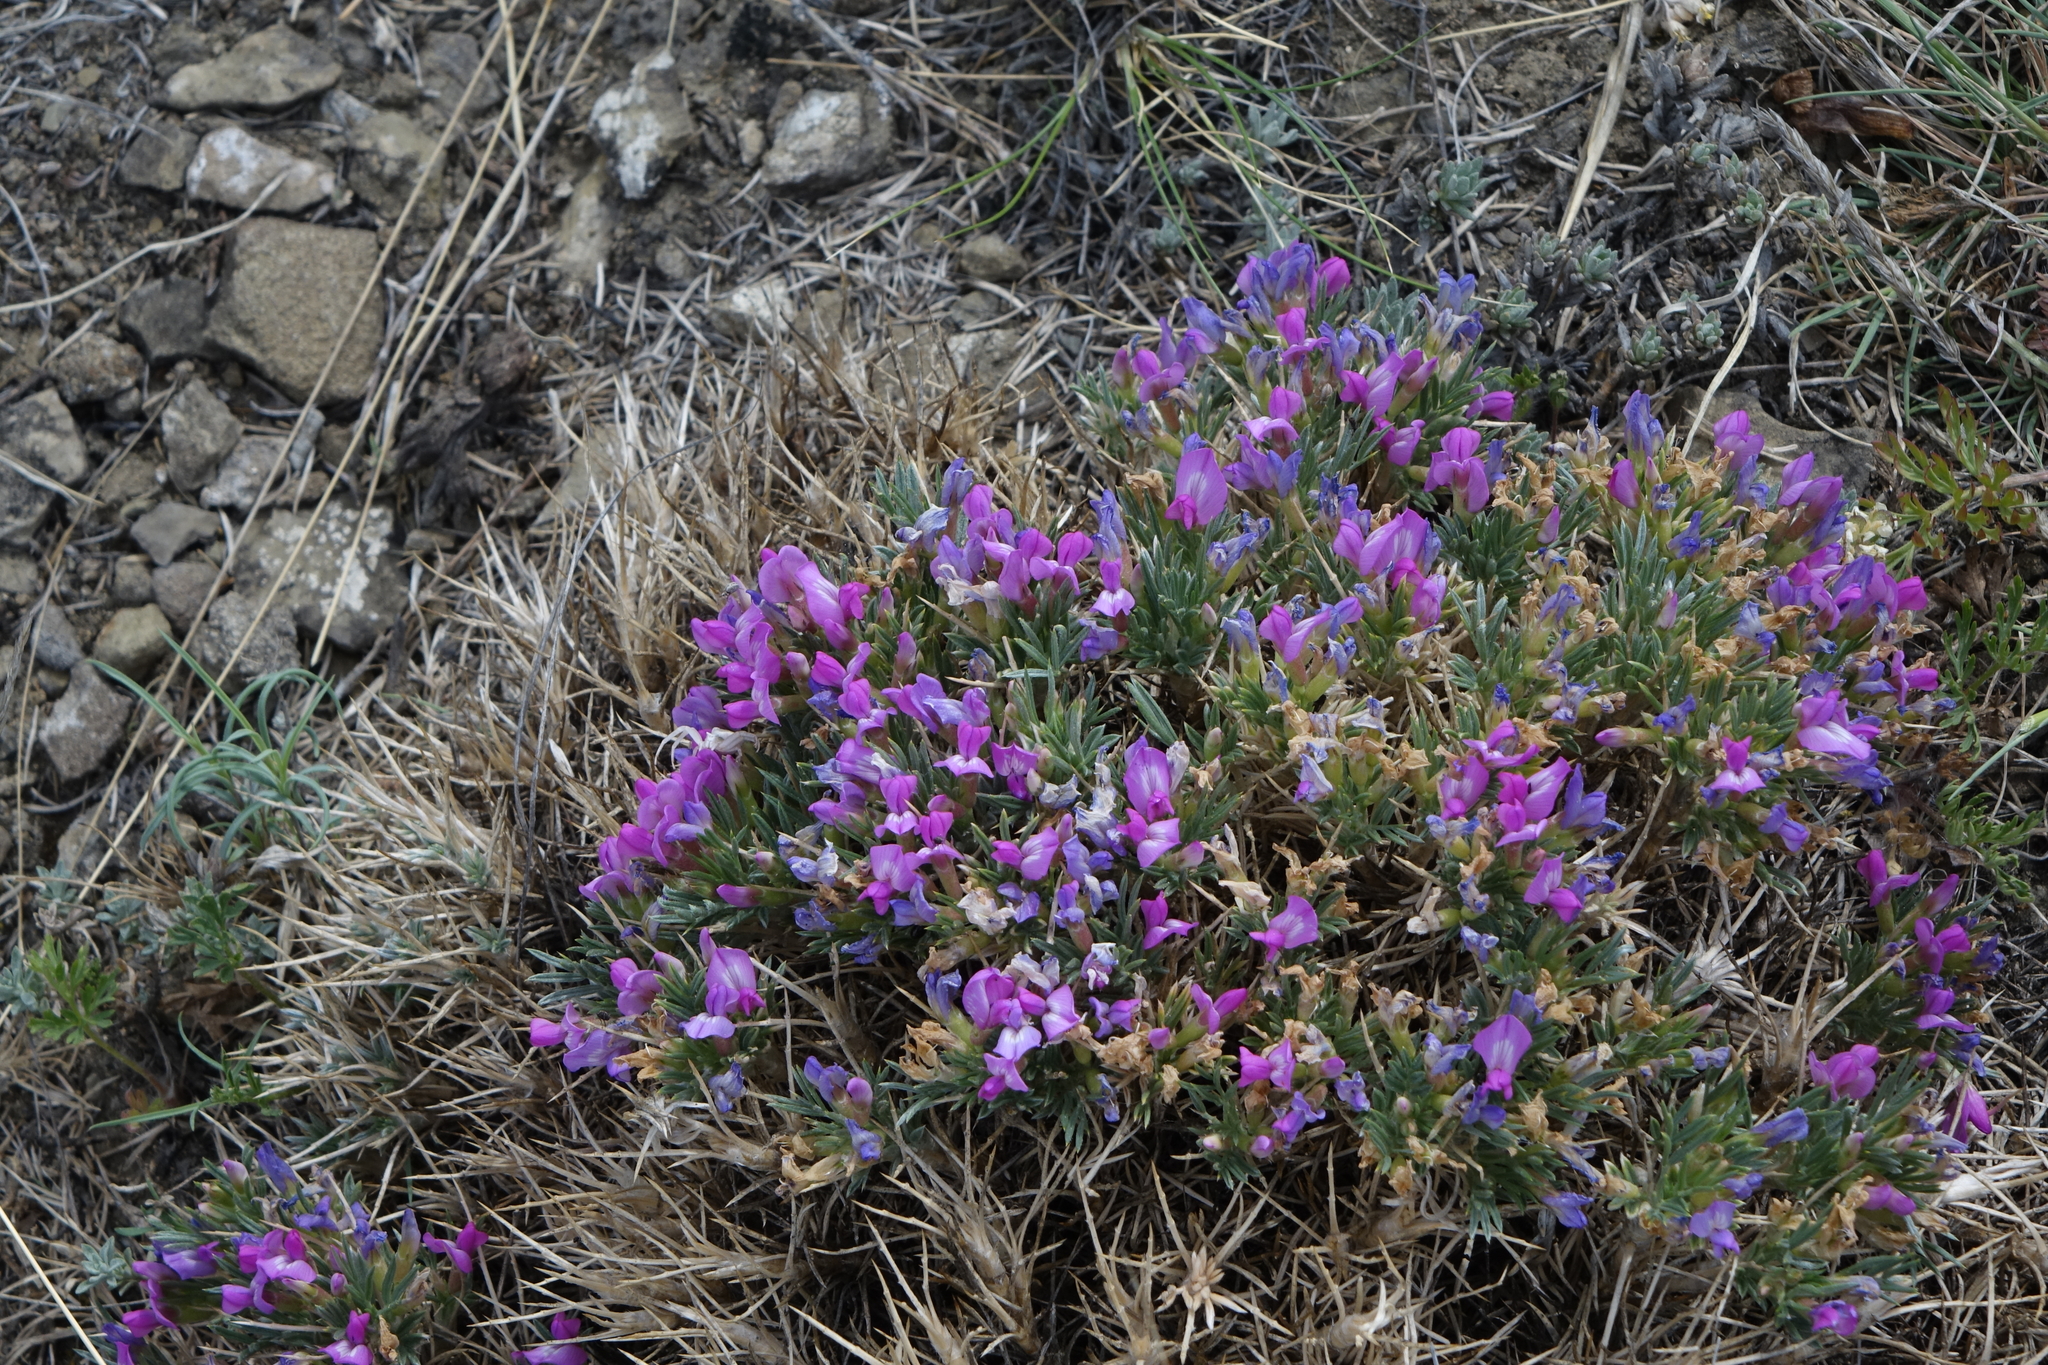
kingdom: Plantae
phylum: Tracheophyta
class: Magnoliopsida
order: Fabales
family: Fabaceae
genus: Oxytropis
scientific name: Oxytropis borissoviae
